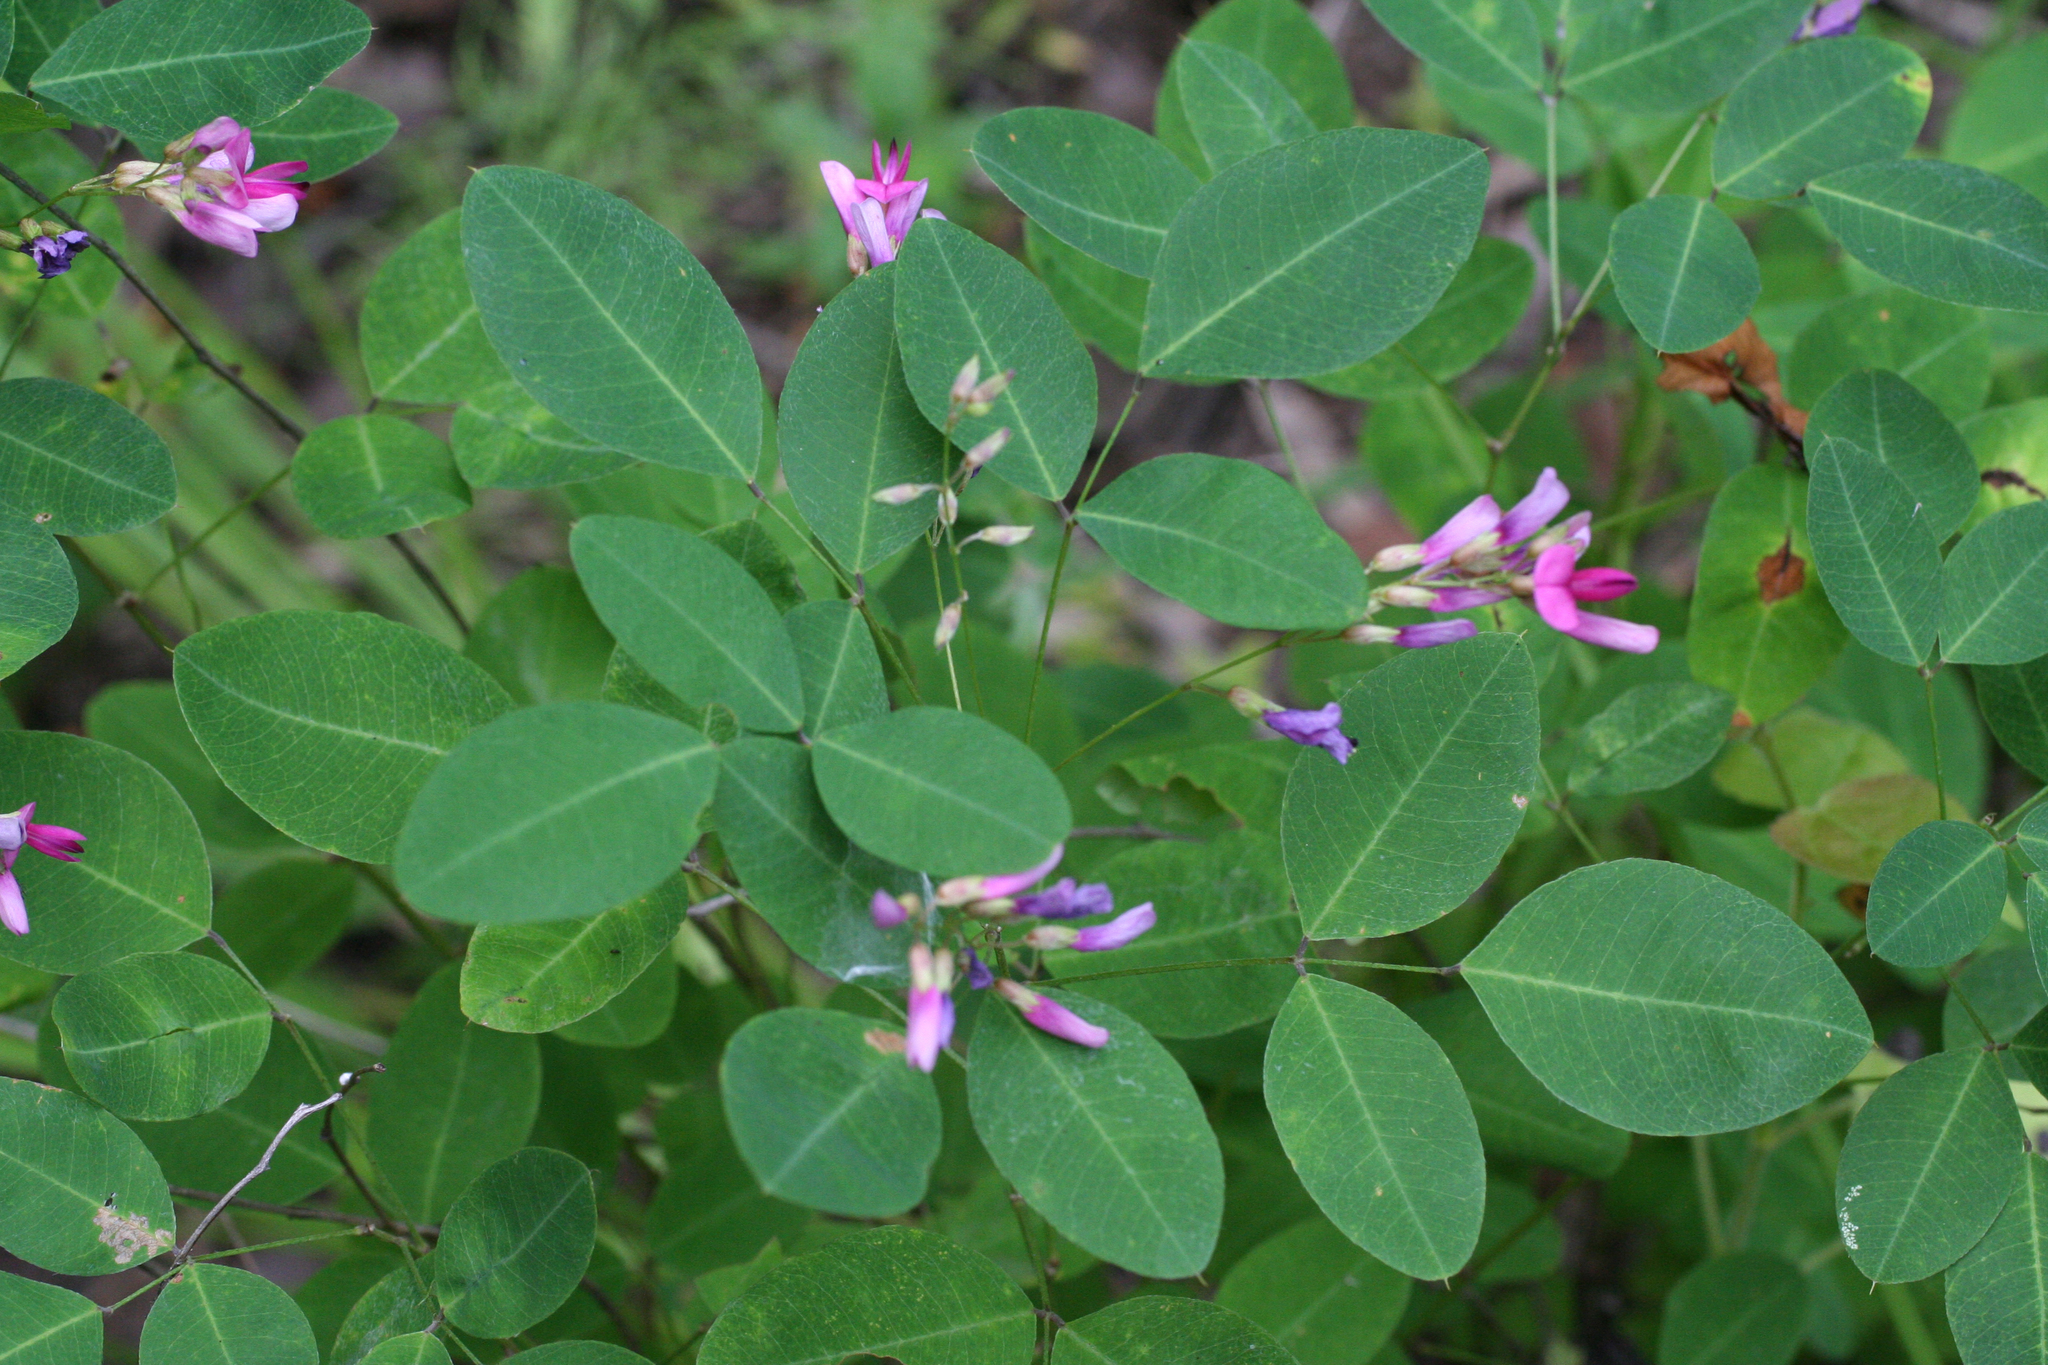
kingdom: Plantae
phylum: Tracheophyta
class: Magnoliopsida
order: Fabales
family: Fabaceae
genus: Lespedeza
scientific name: Lespedeza bicolor
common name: Shrub lespedeza
